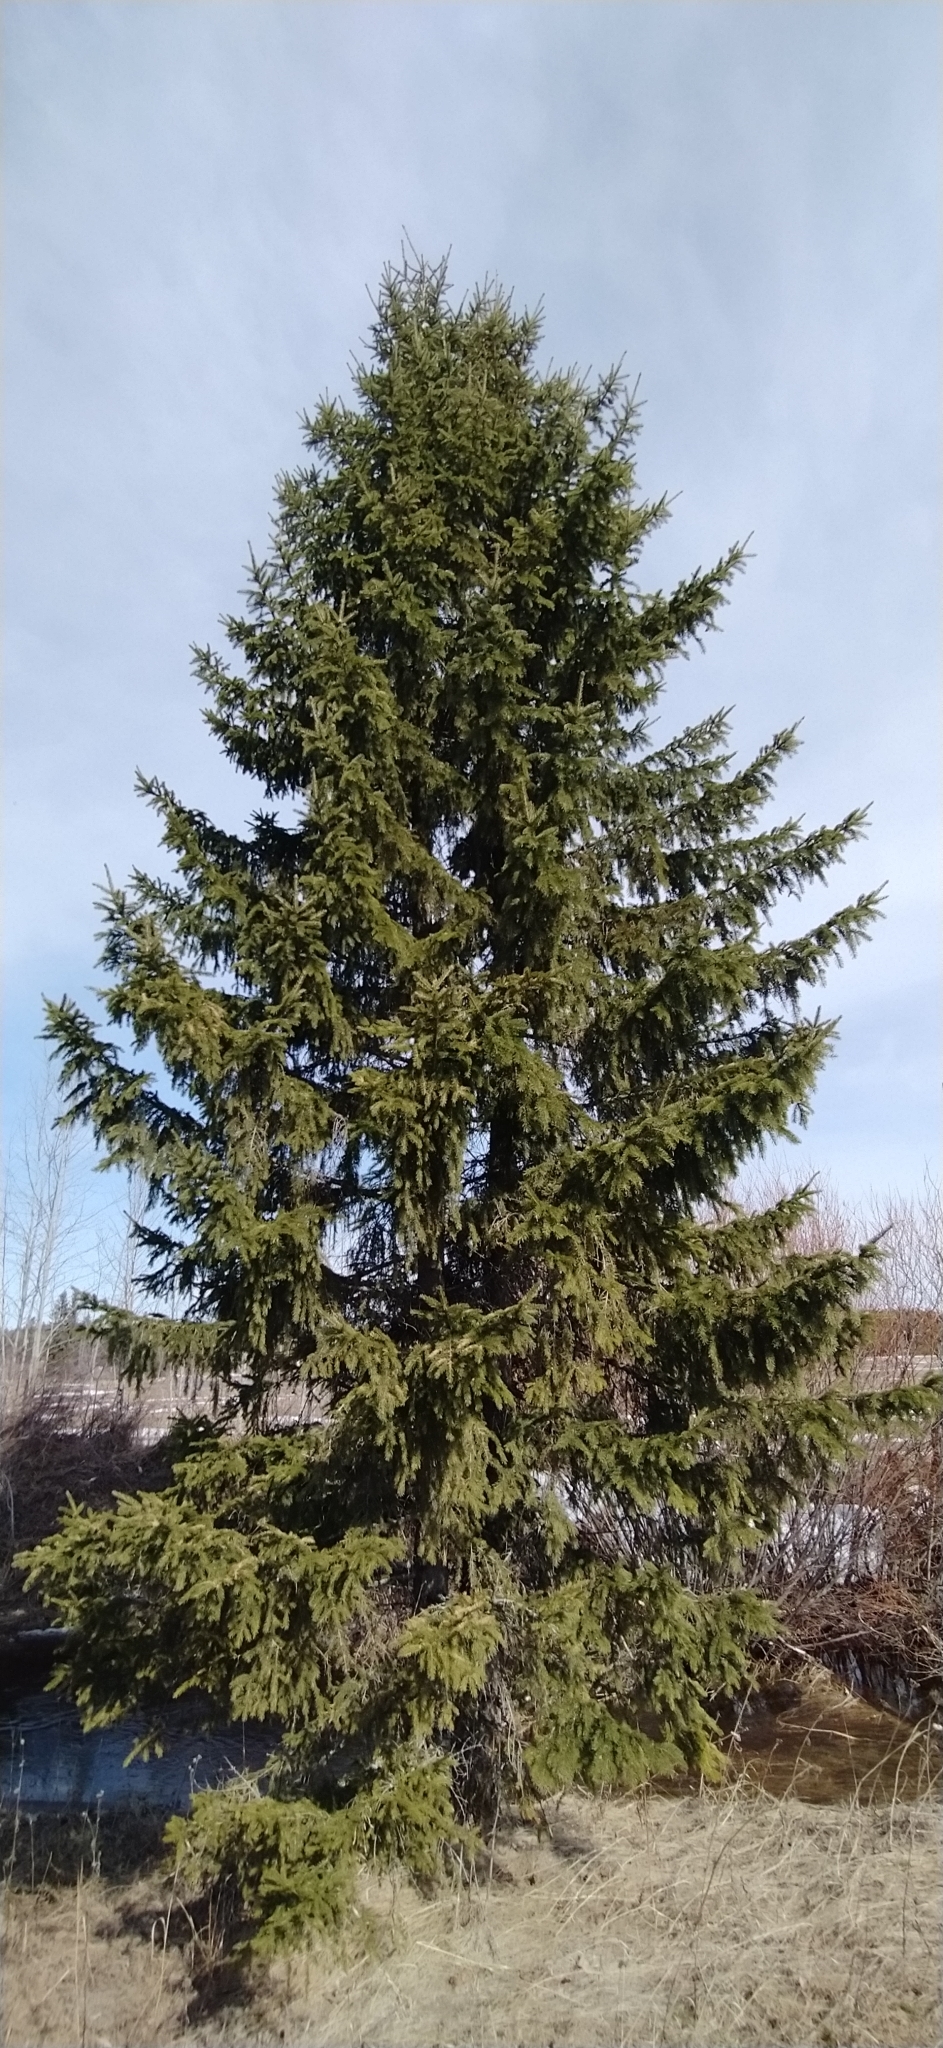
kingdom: Plantae
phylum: Tracheophyta
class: Pinopsida
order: Pinales
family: Pinaceae
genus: Picea
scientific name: Picea obovata
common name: Siberian spruce
